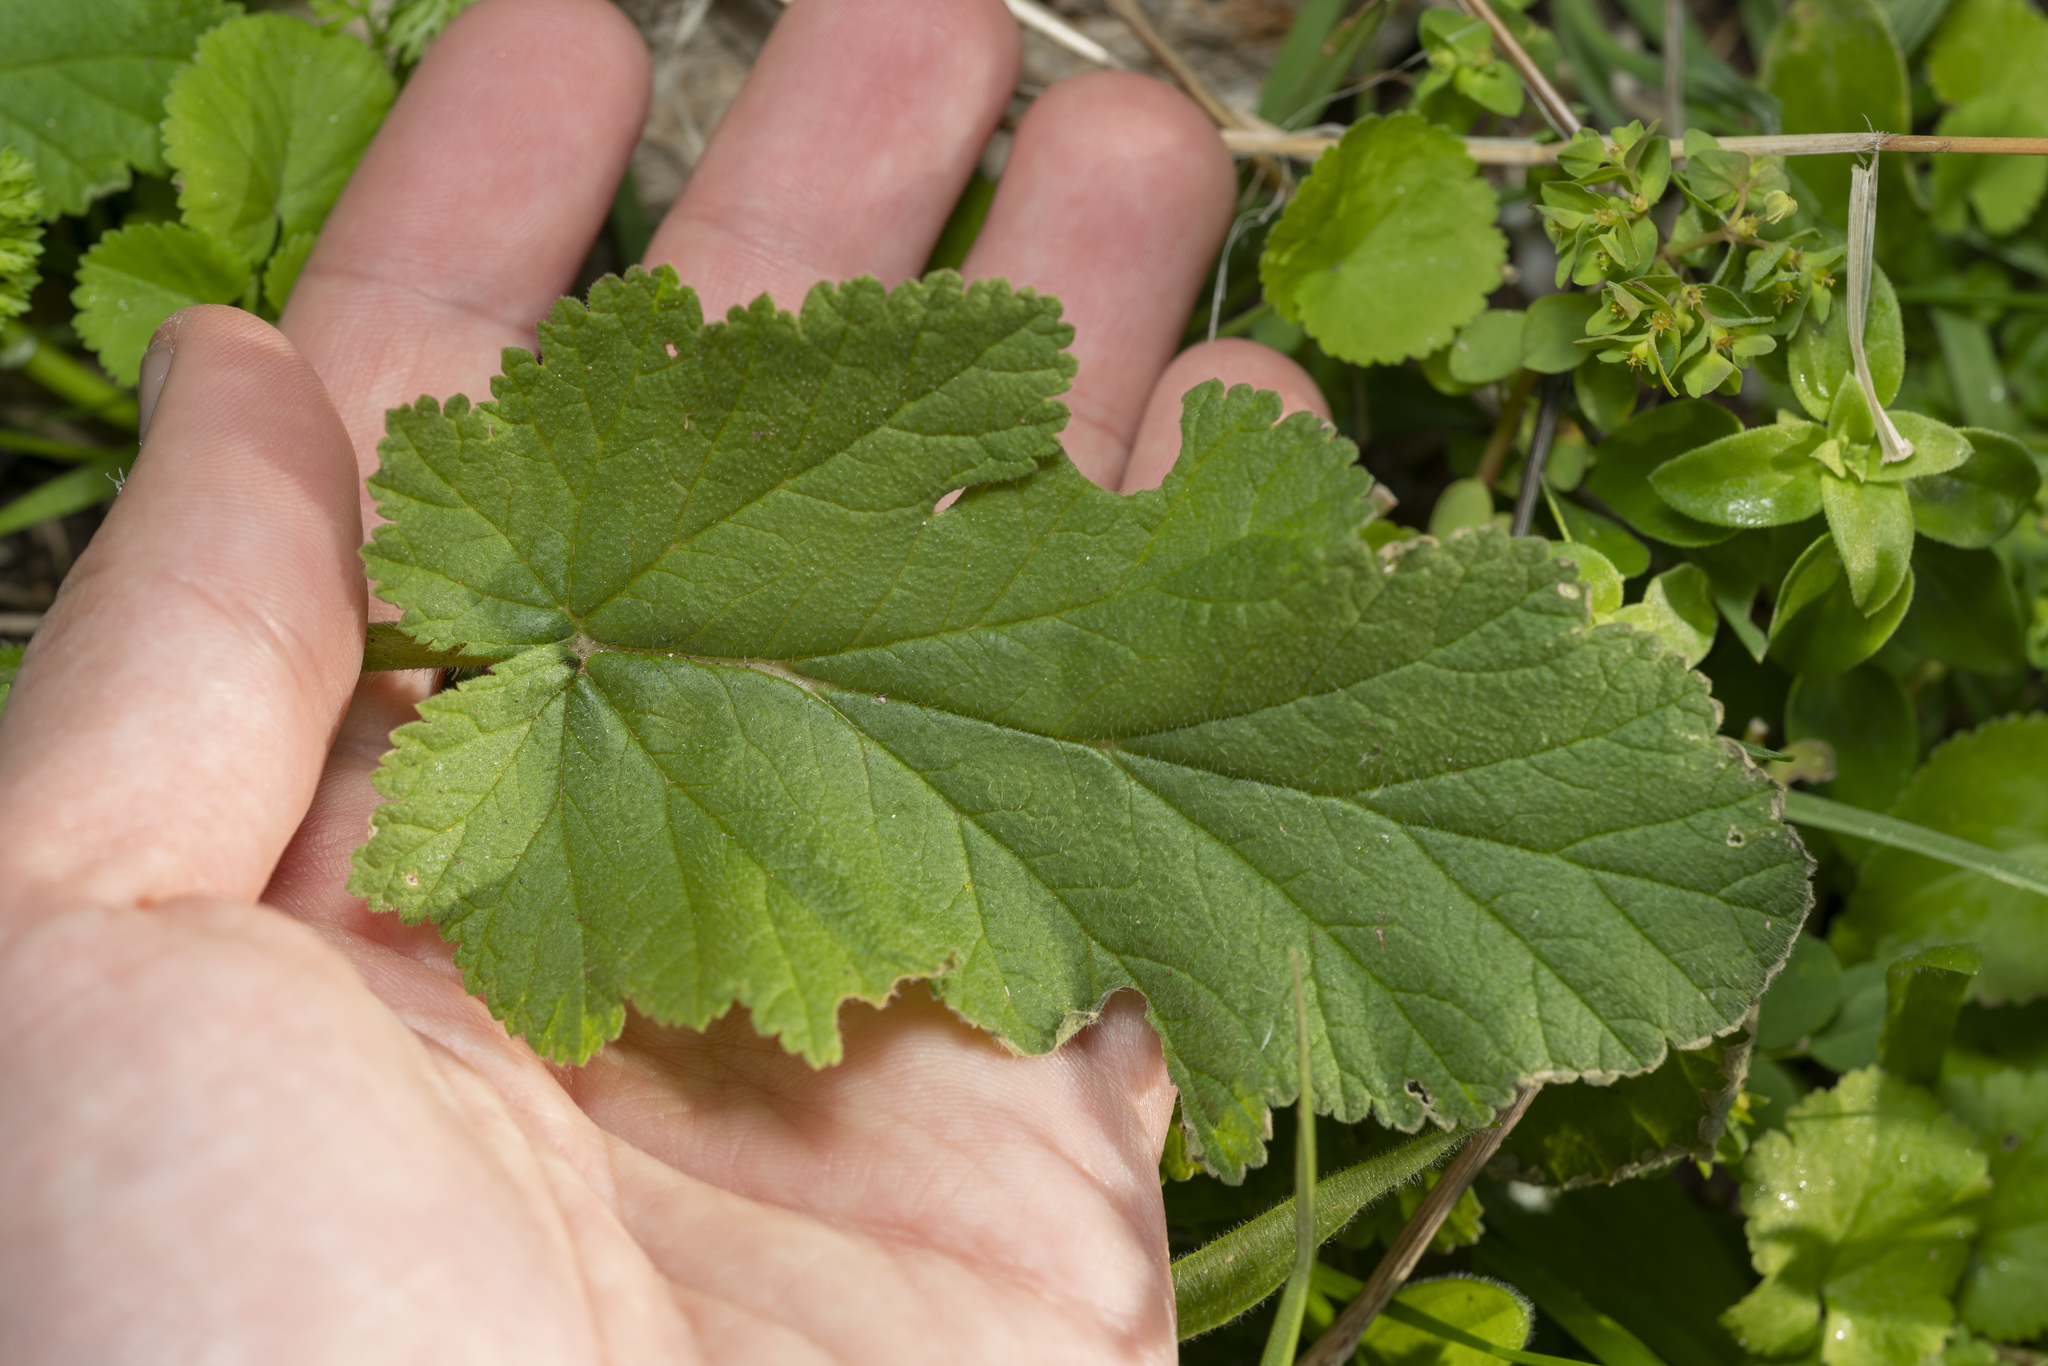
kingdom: Plantae
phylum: Tracheophyta
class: Magnoliopsida
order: Geraniales
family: Geraniaceae
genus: Erodium
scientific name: Erodium malacoides
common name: Soft stork's-bill
